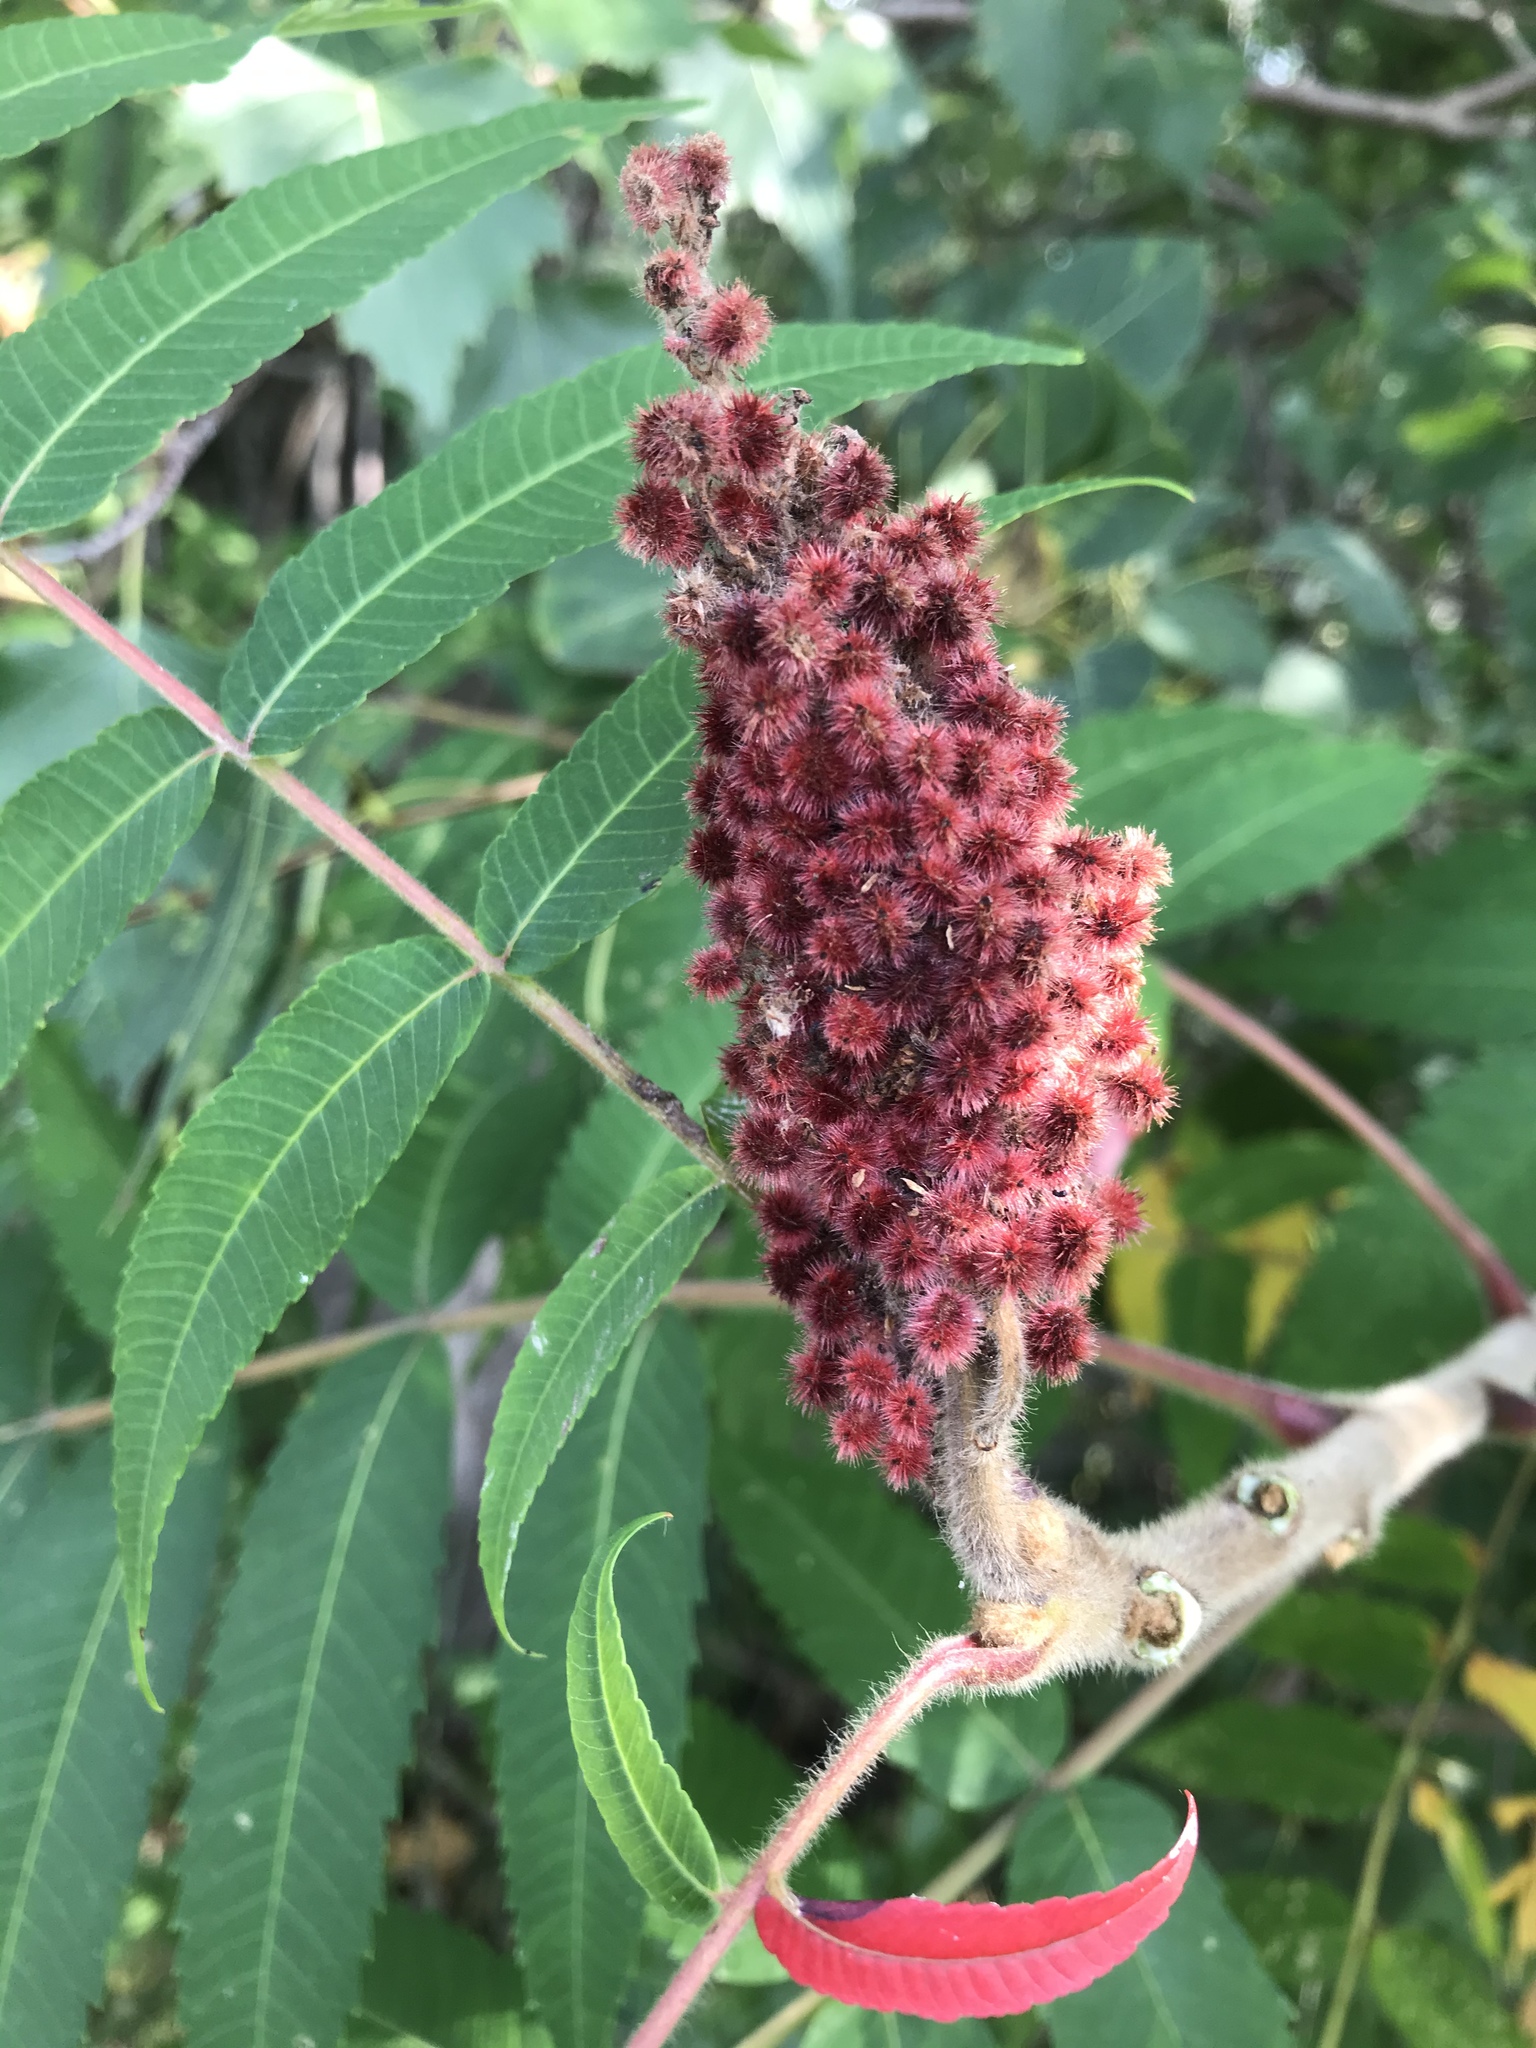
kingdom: Plantae
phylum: Tracheophyta
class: Magnoliopsida
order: Sapindales
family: Anacardiaceae
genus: Rhus
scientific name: Rhus typhina
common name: Staghorn sumac
